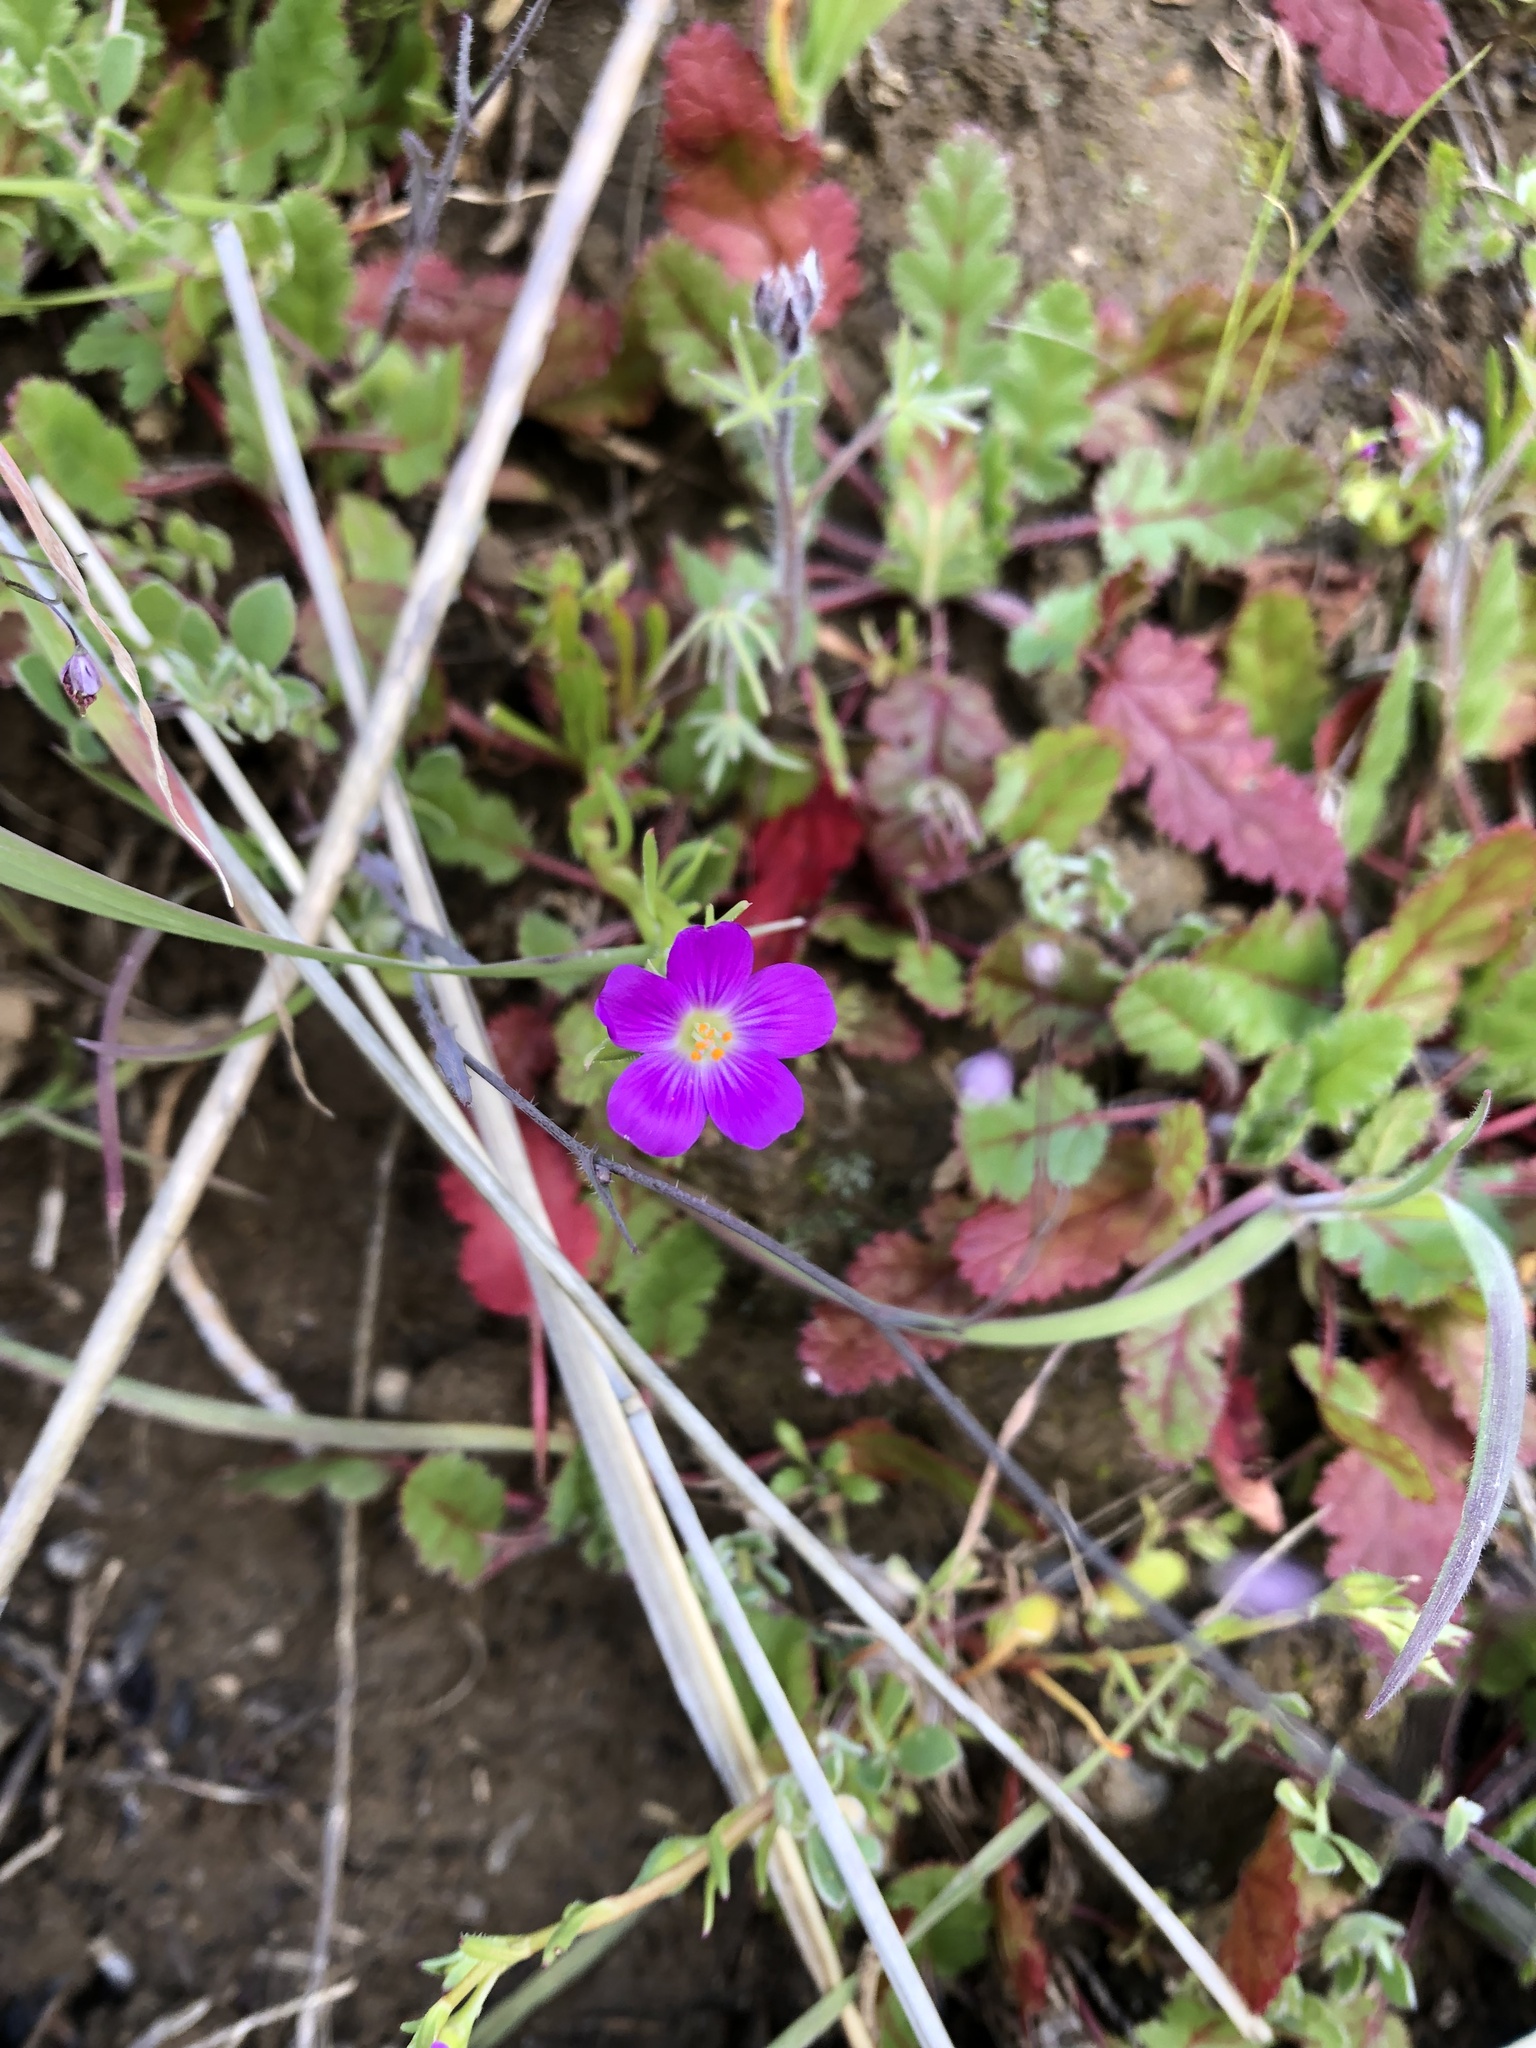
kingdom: Plantae
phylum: Tracheophyta
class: Magnoliopsida
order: Caryophyllales
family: Montiaceae
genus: Calandrinia
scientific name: Calandrinia menziesii
